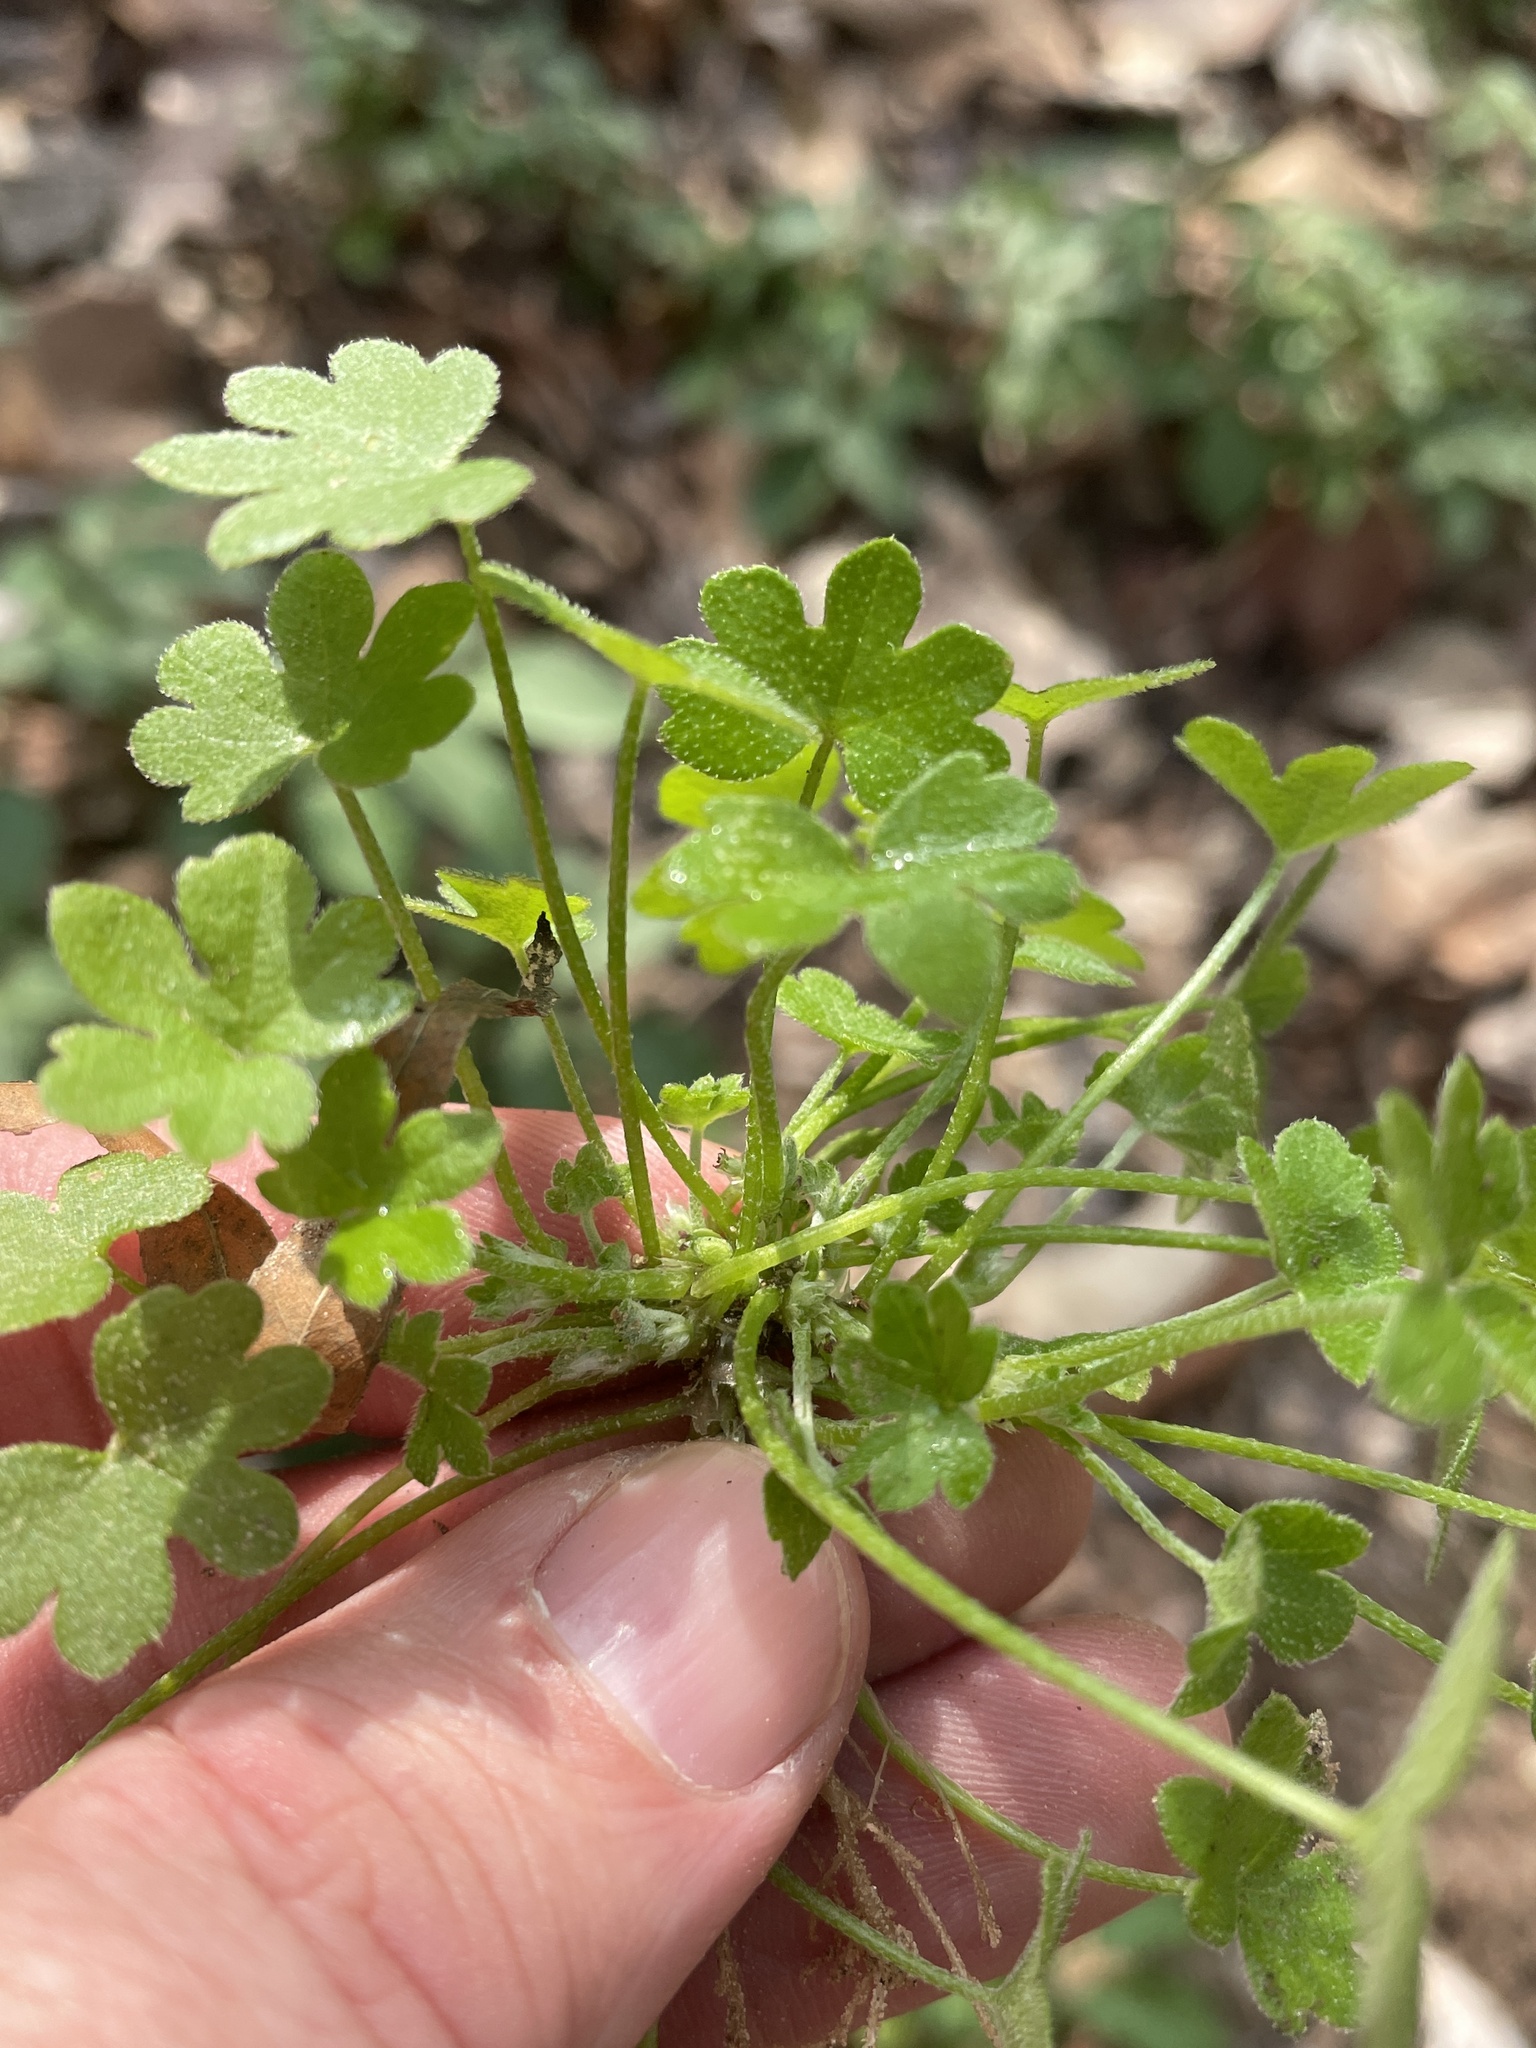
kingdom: Plantae
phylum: Tracheophyta
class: Magnoliopsida
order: Apiales
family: Apiaceae
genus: Bowlesia
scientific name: Bowlesia incana
